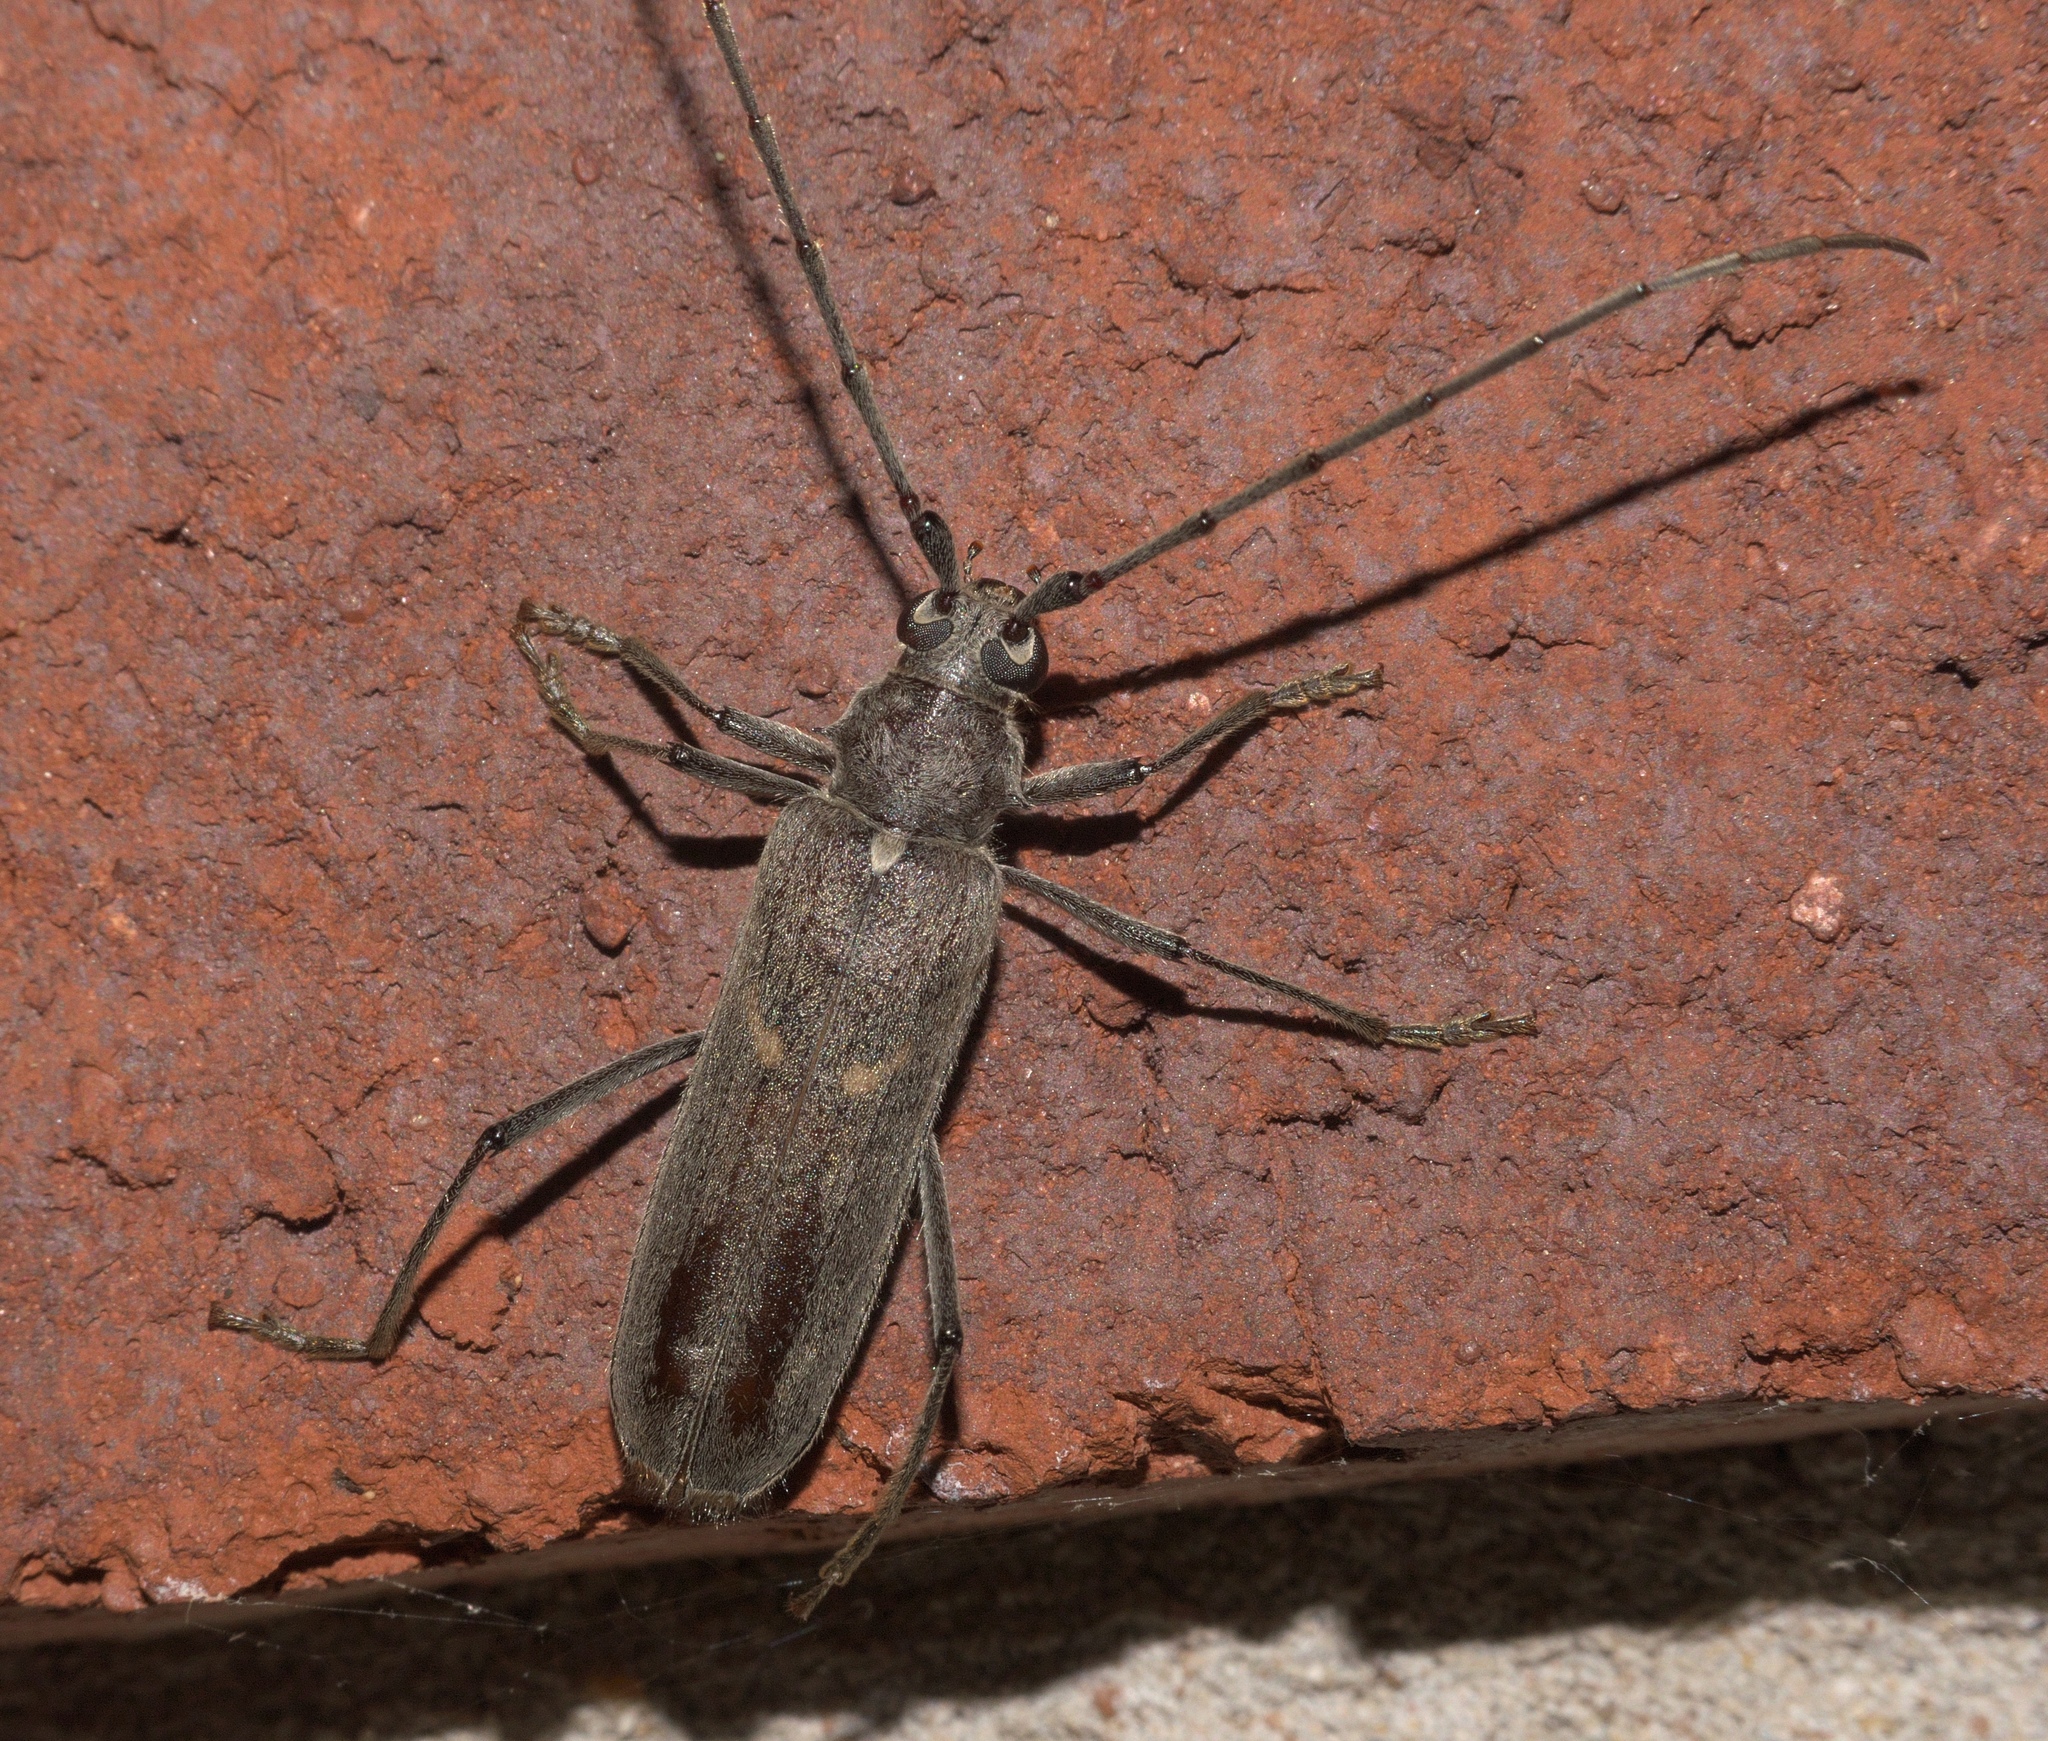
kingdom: Animalia
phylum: Arthropoda
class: Insecta
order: Coleoptera
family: Cerambycidae
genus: Knulliana
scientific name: Knulliana cincta
